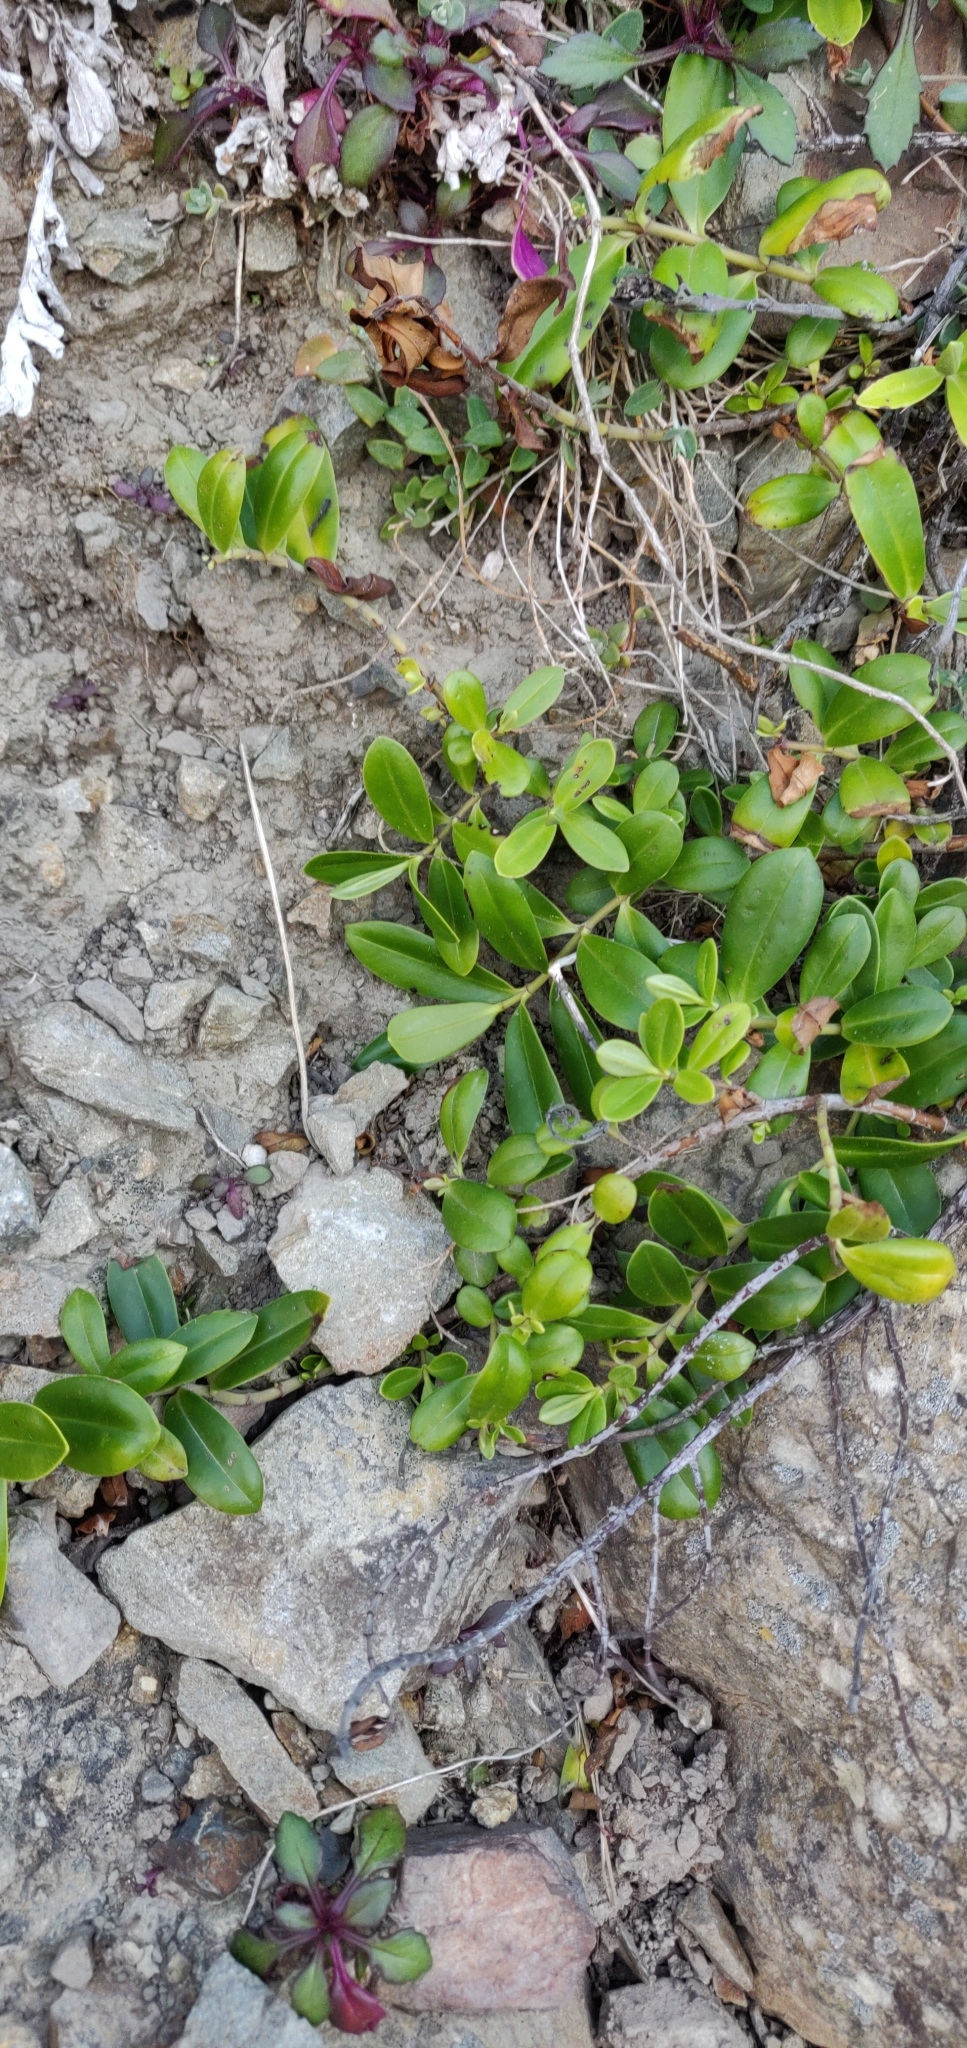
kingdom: Plantae
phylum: Tracheophyta
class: Magnoliopsida
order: Lamiales
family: Plantaginaceae
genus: Veronica
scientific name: Veronica stricta
